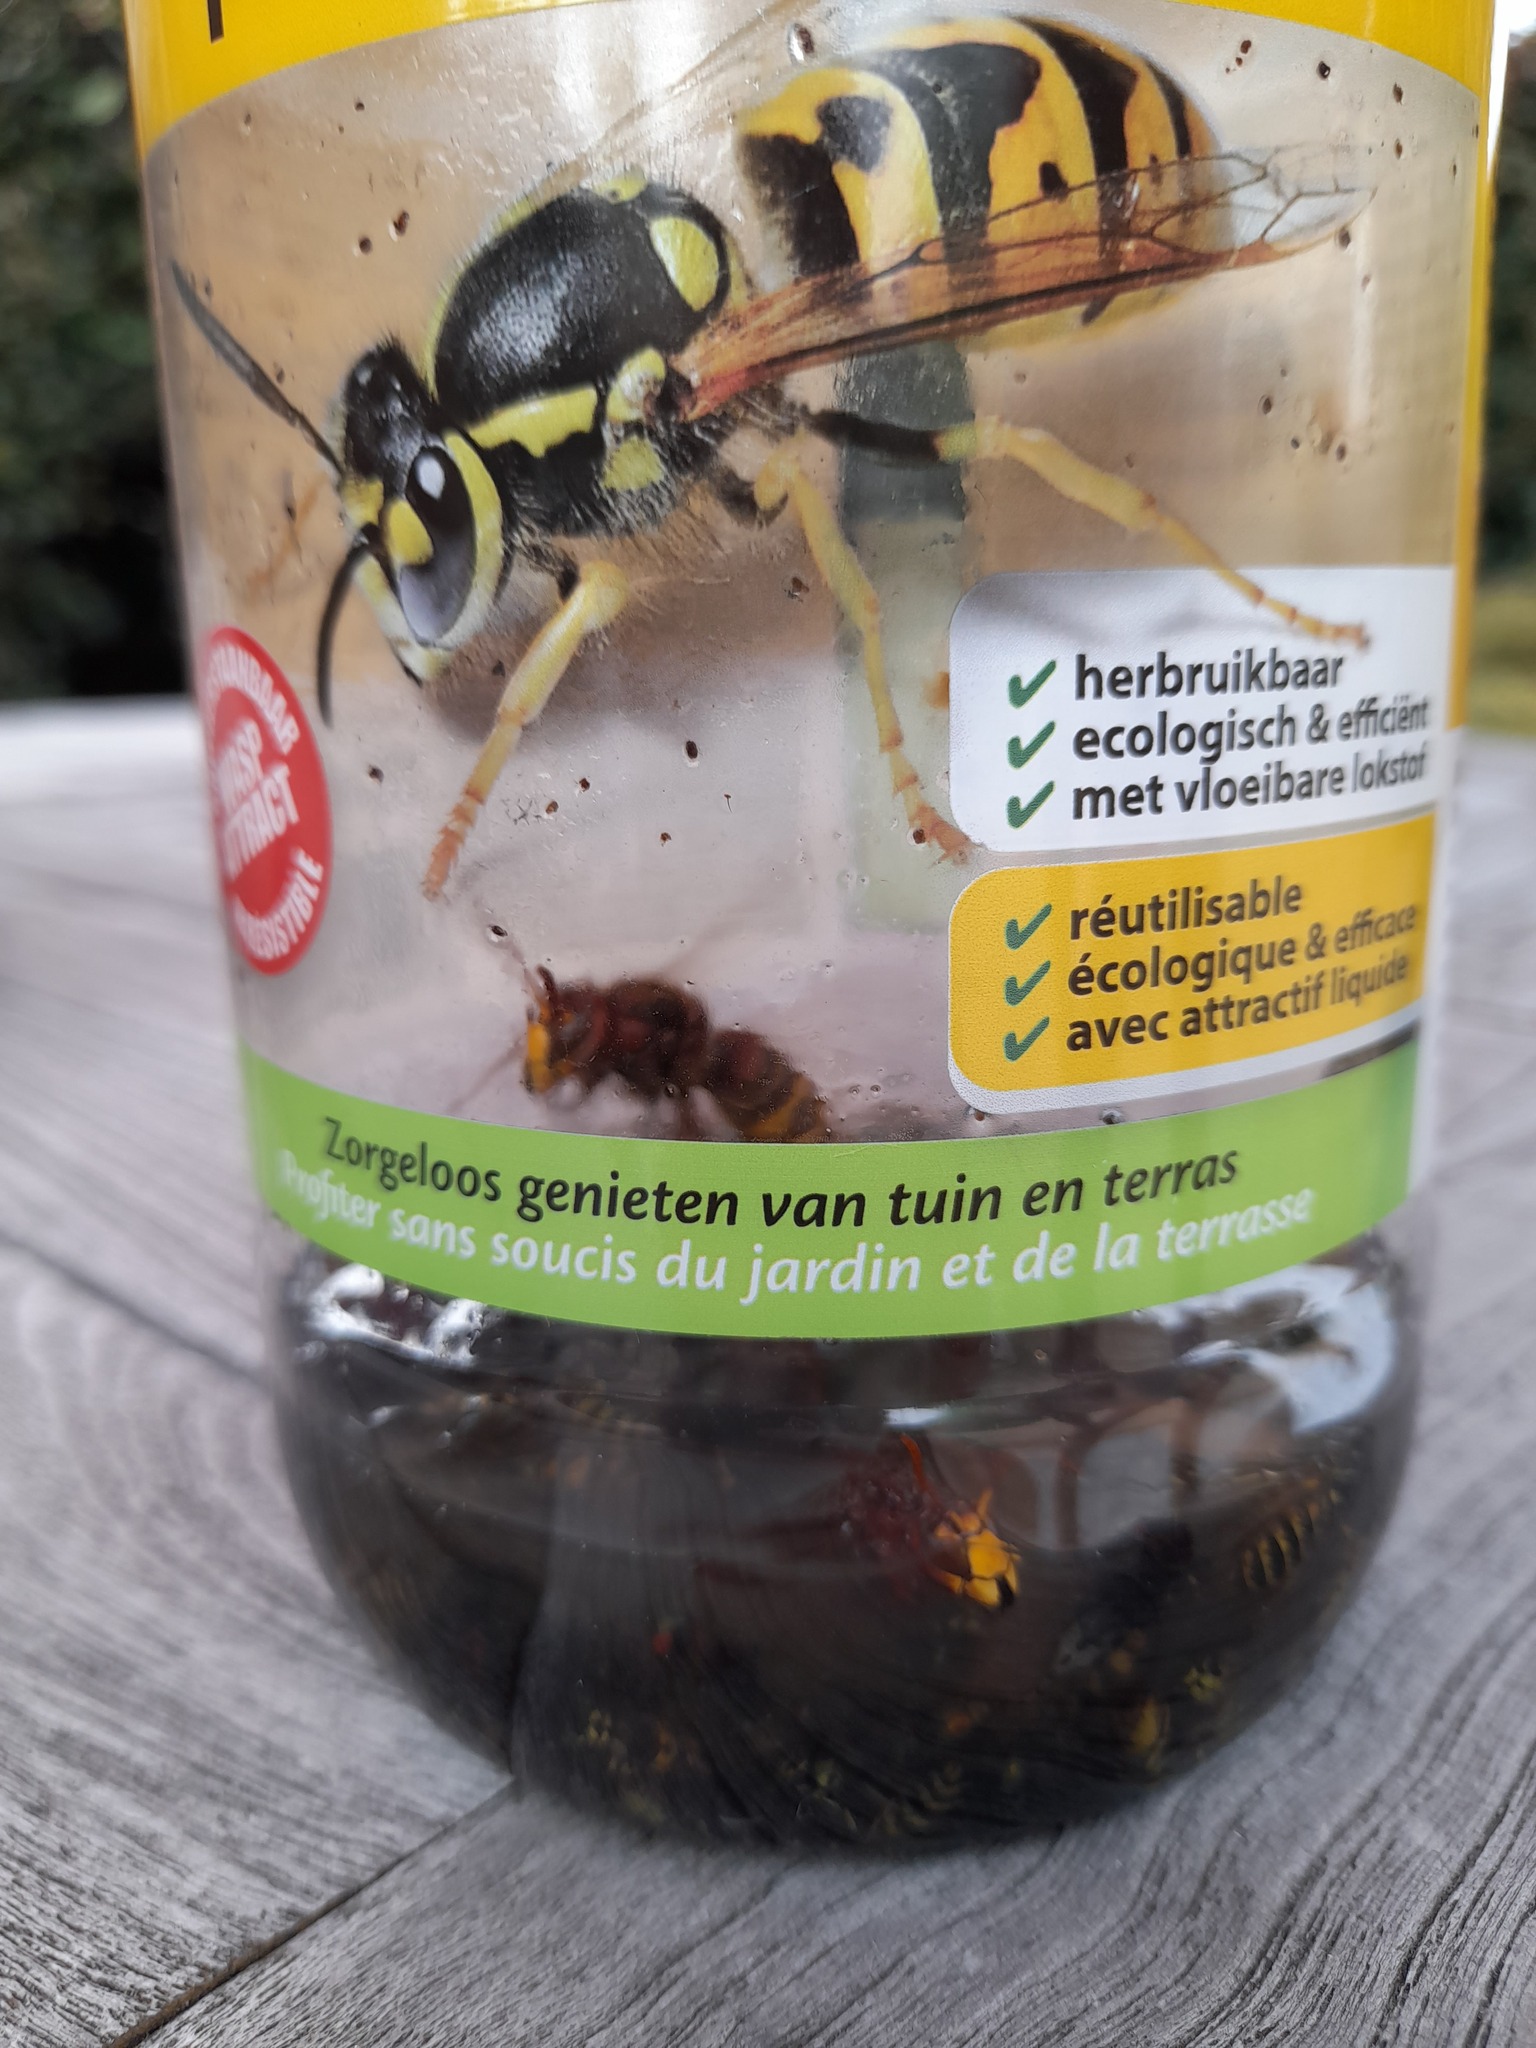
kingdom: Animalia
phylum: Arthropoda
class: Insecta
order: Hymenoptera
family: Vespidae
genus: Vespa
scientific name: Vespa crabro
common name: Hornet
